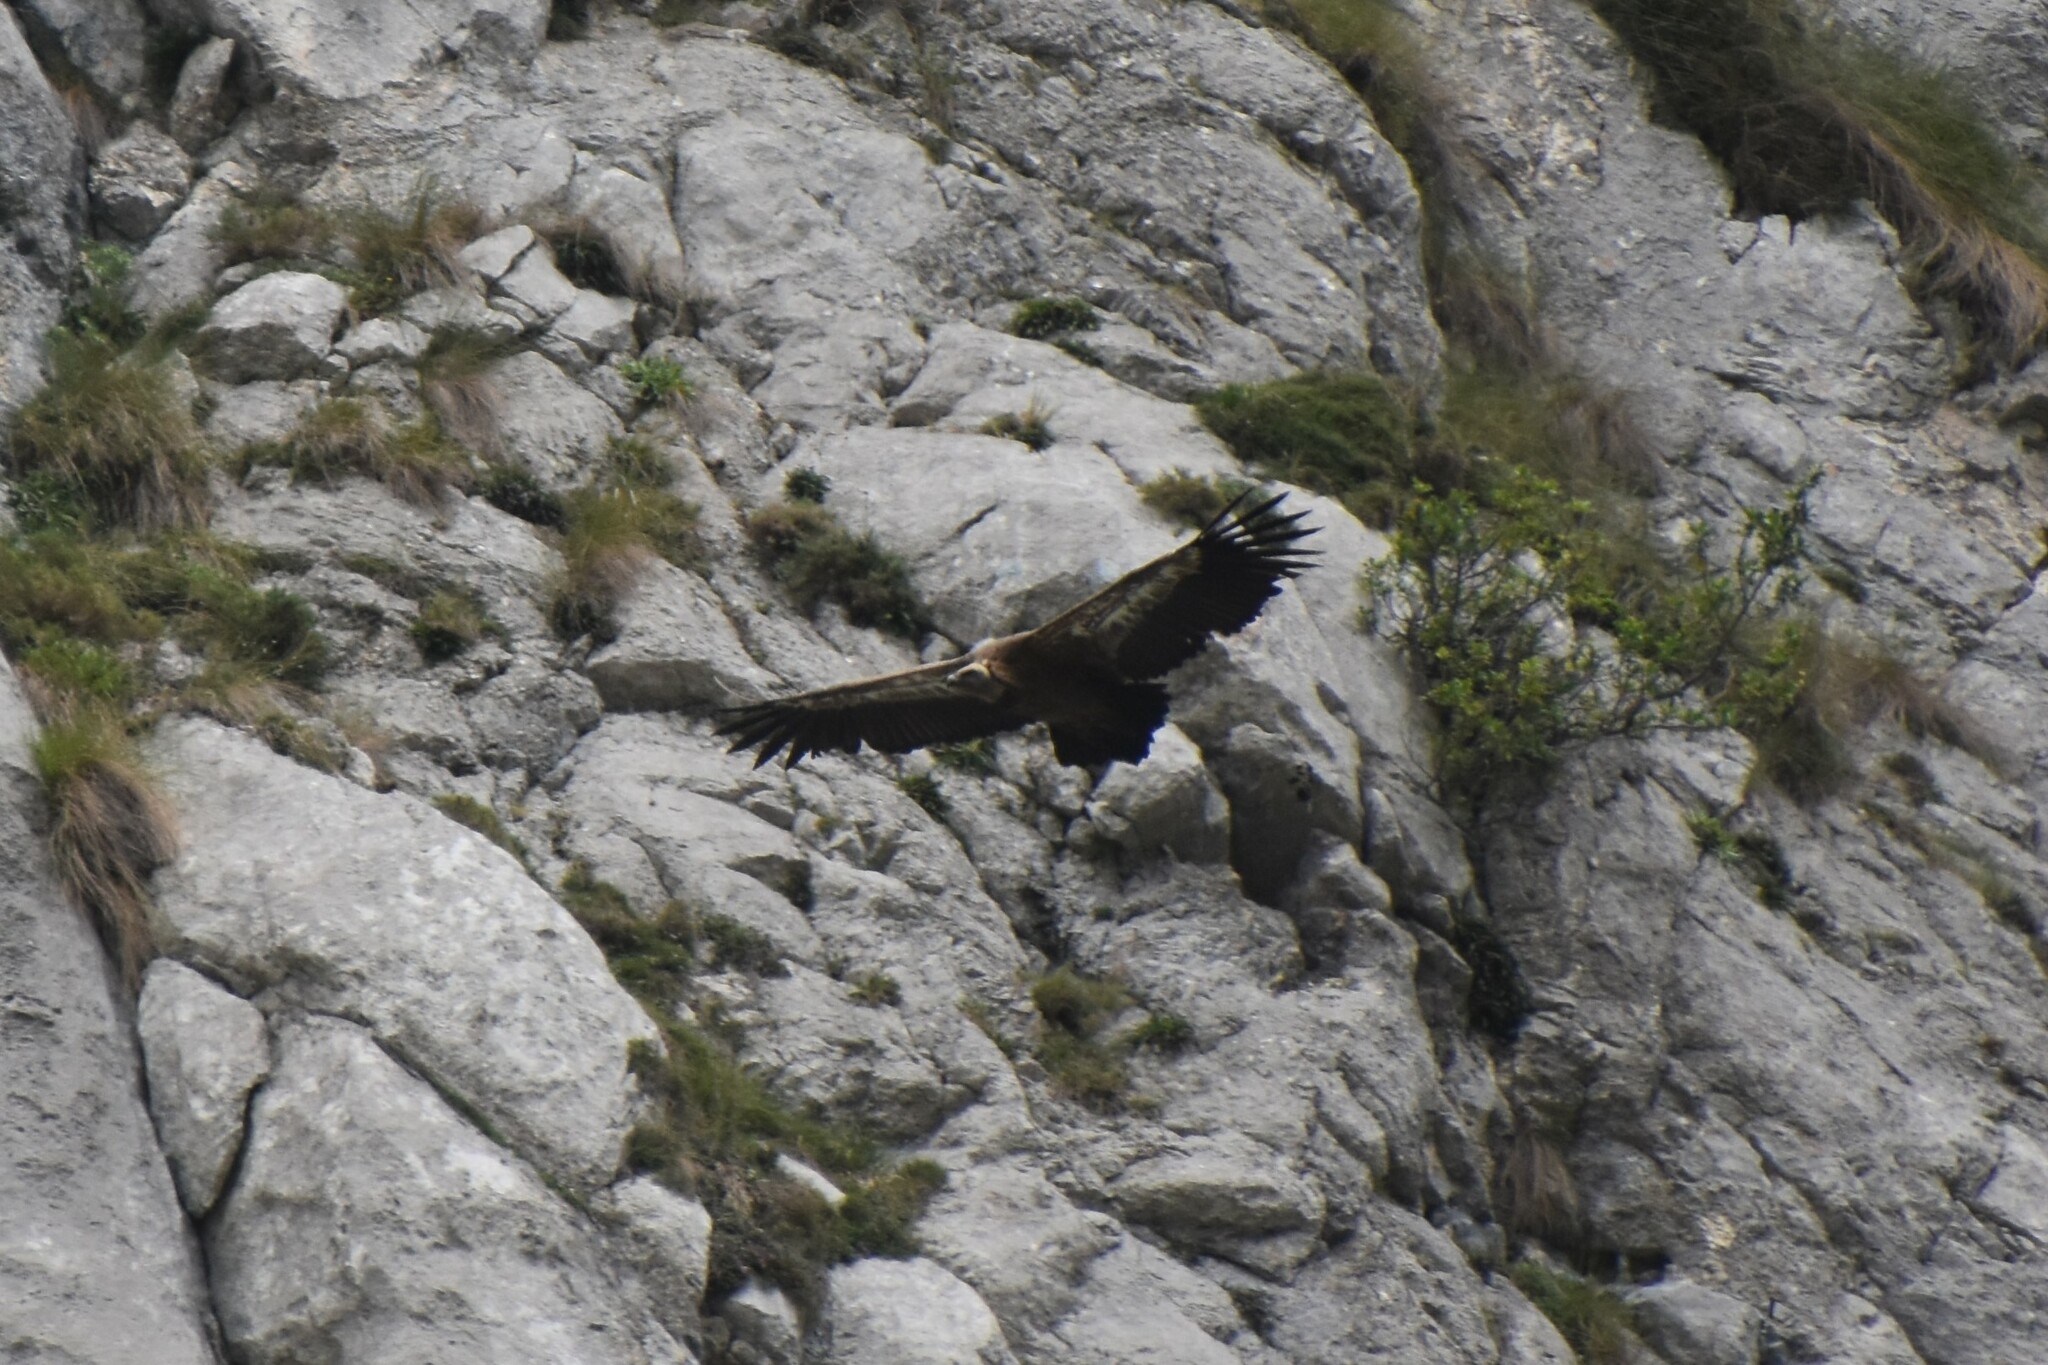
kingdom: Animalia
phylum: Chordata
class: Aves
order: Accipitriformes
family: Accipitridae
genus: Gyps
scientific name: Gyps fulvus
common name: Griffon vulture
